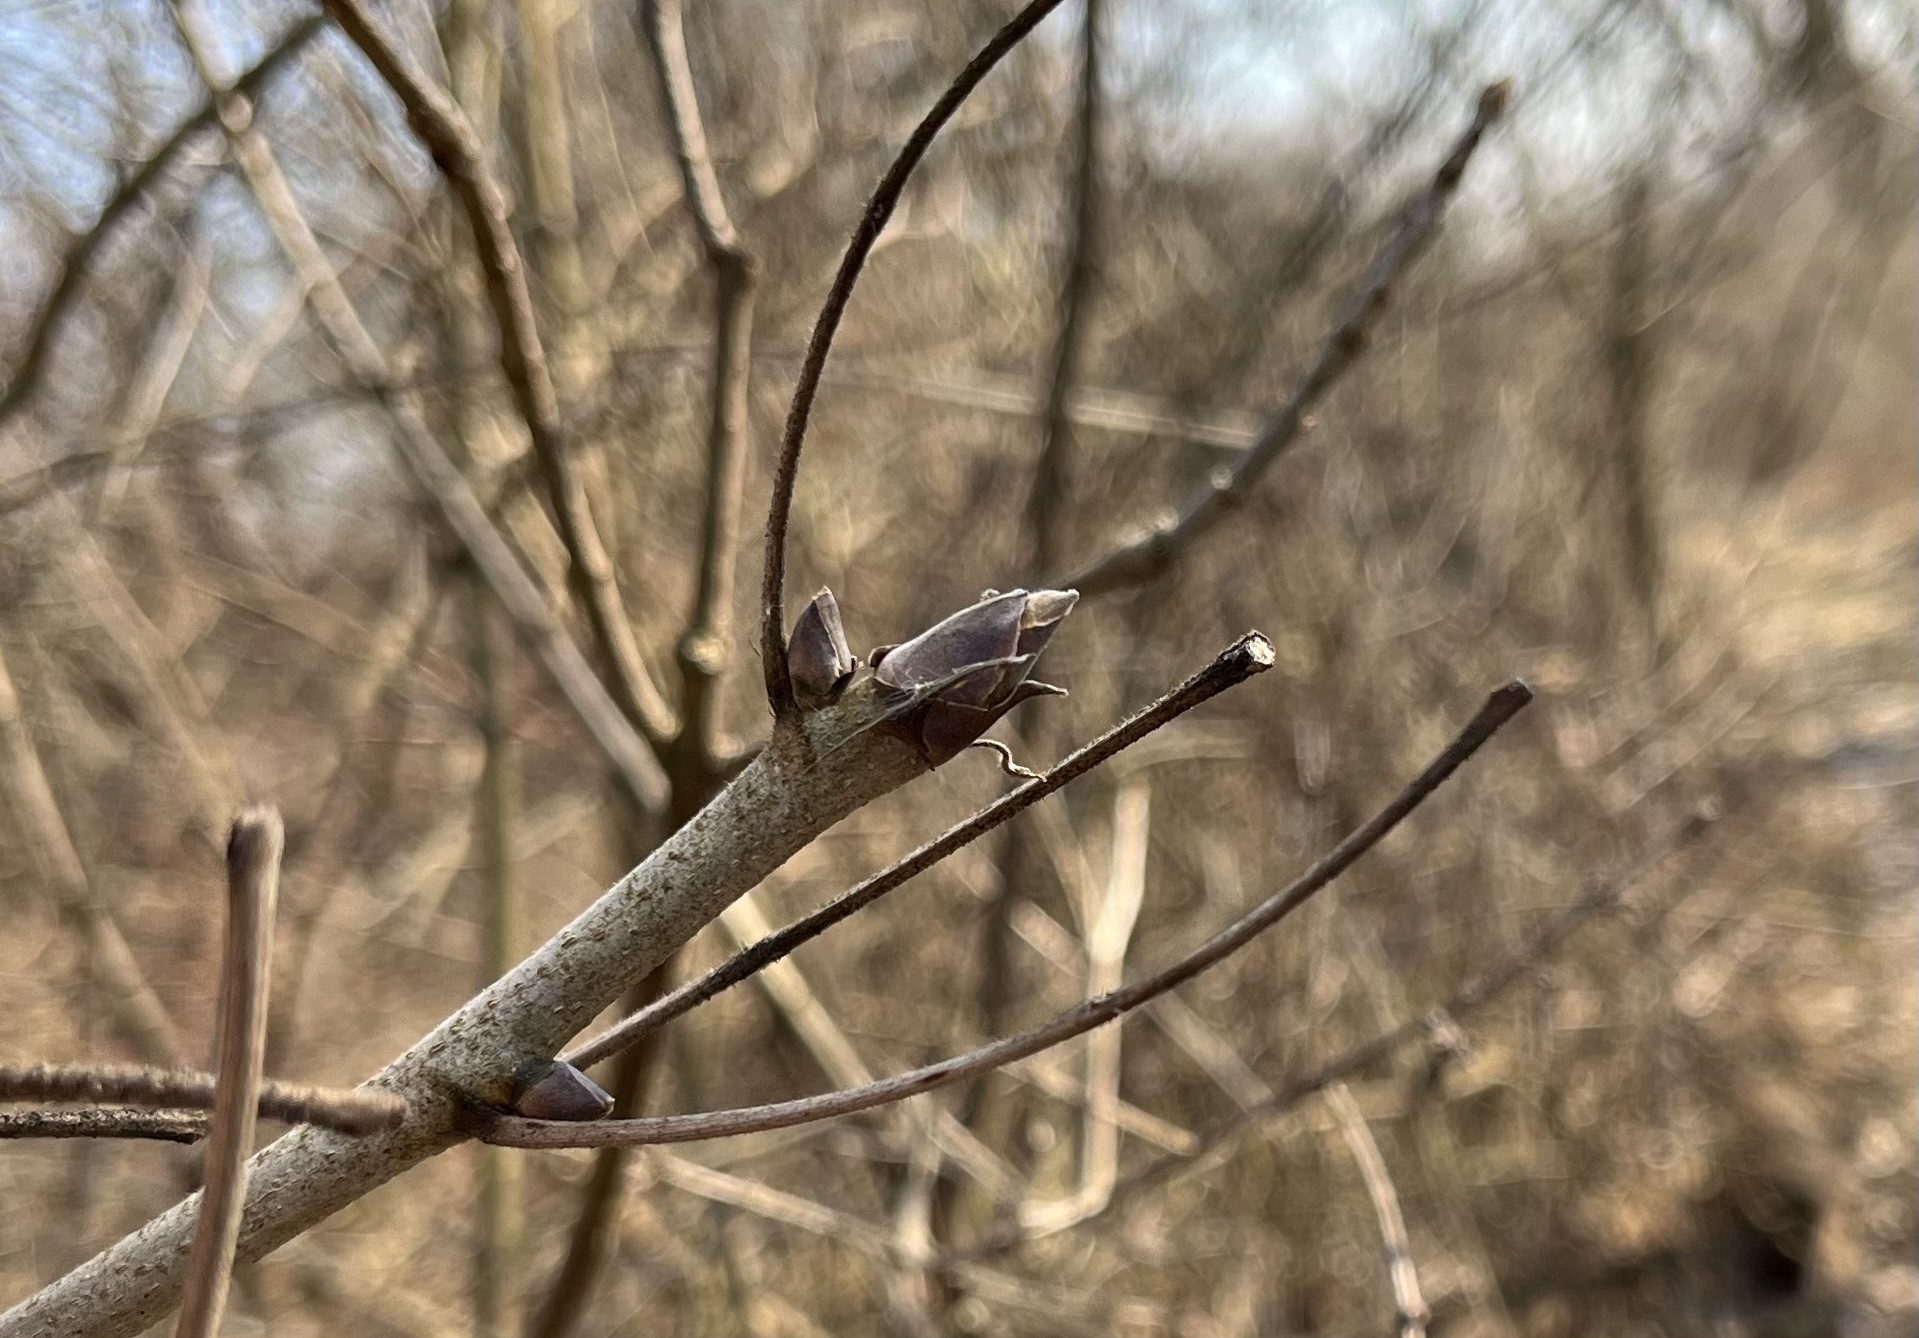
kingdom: Plantae
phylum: Tracheophyta
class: Magnoliopsida
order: Fagales
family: Juglandaceae
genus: Carya
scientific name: Carya laciniosa
